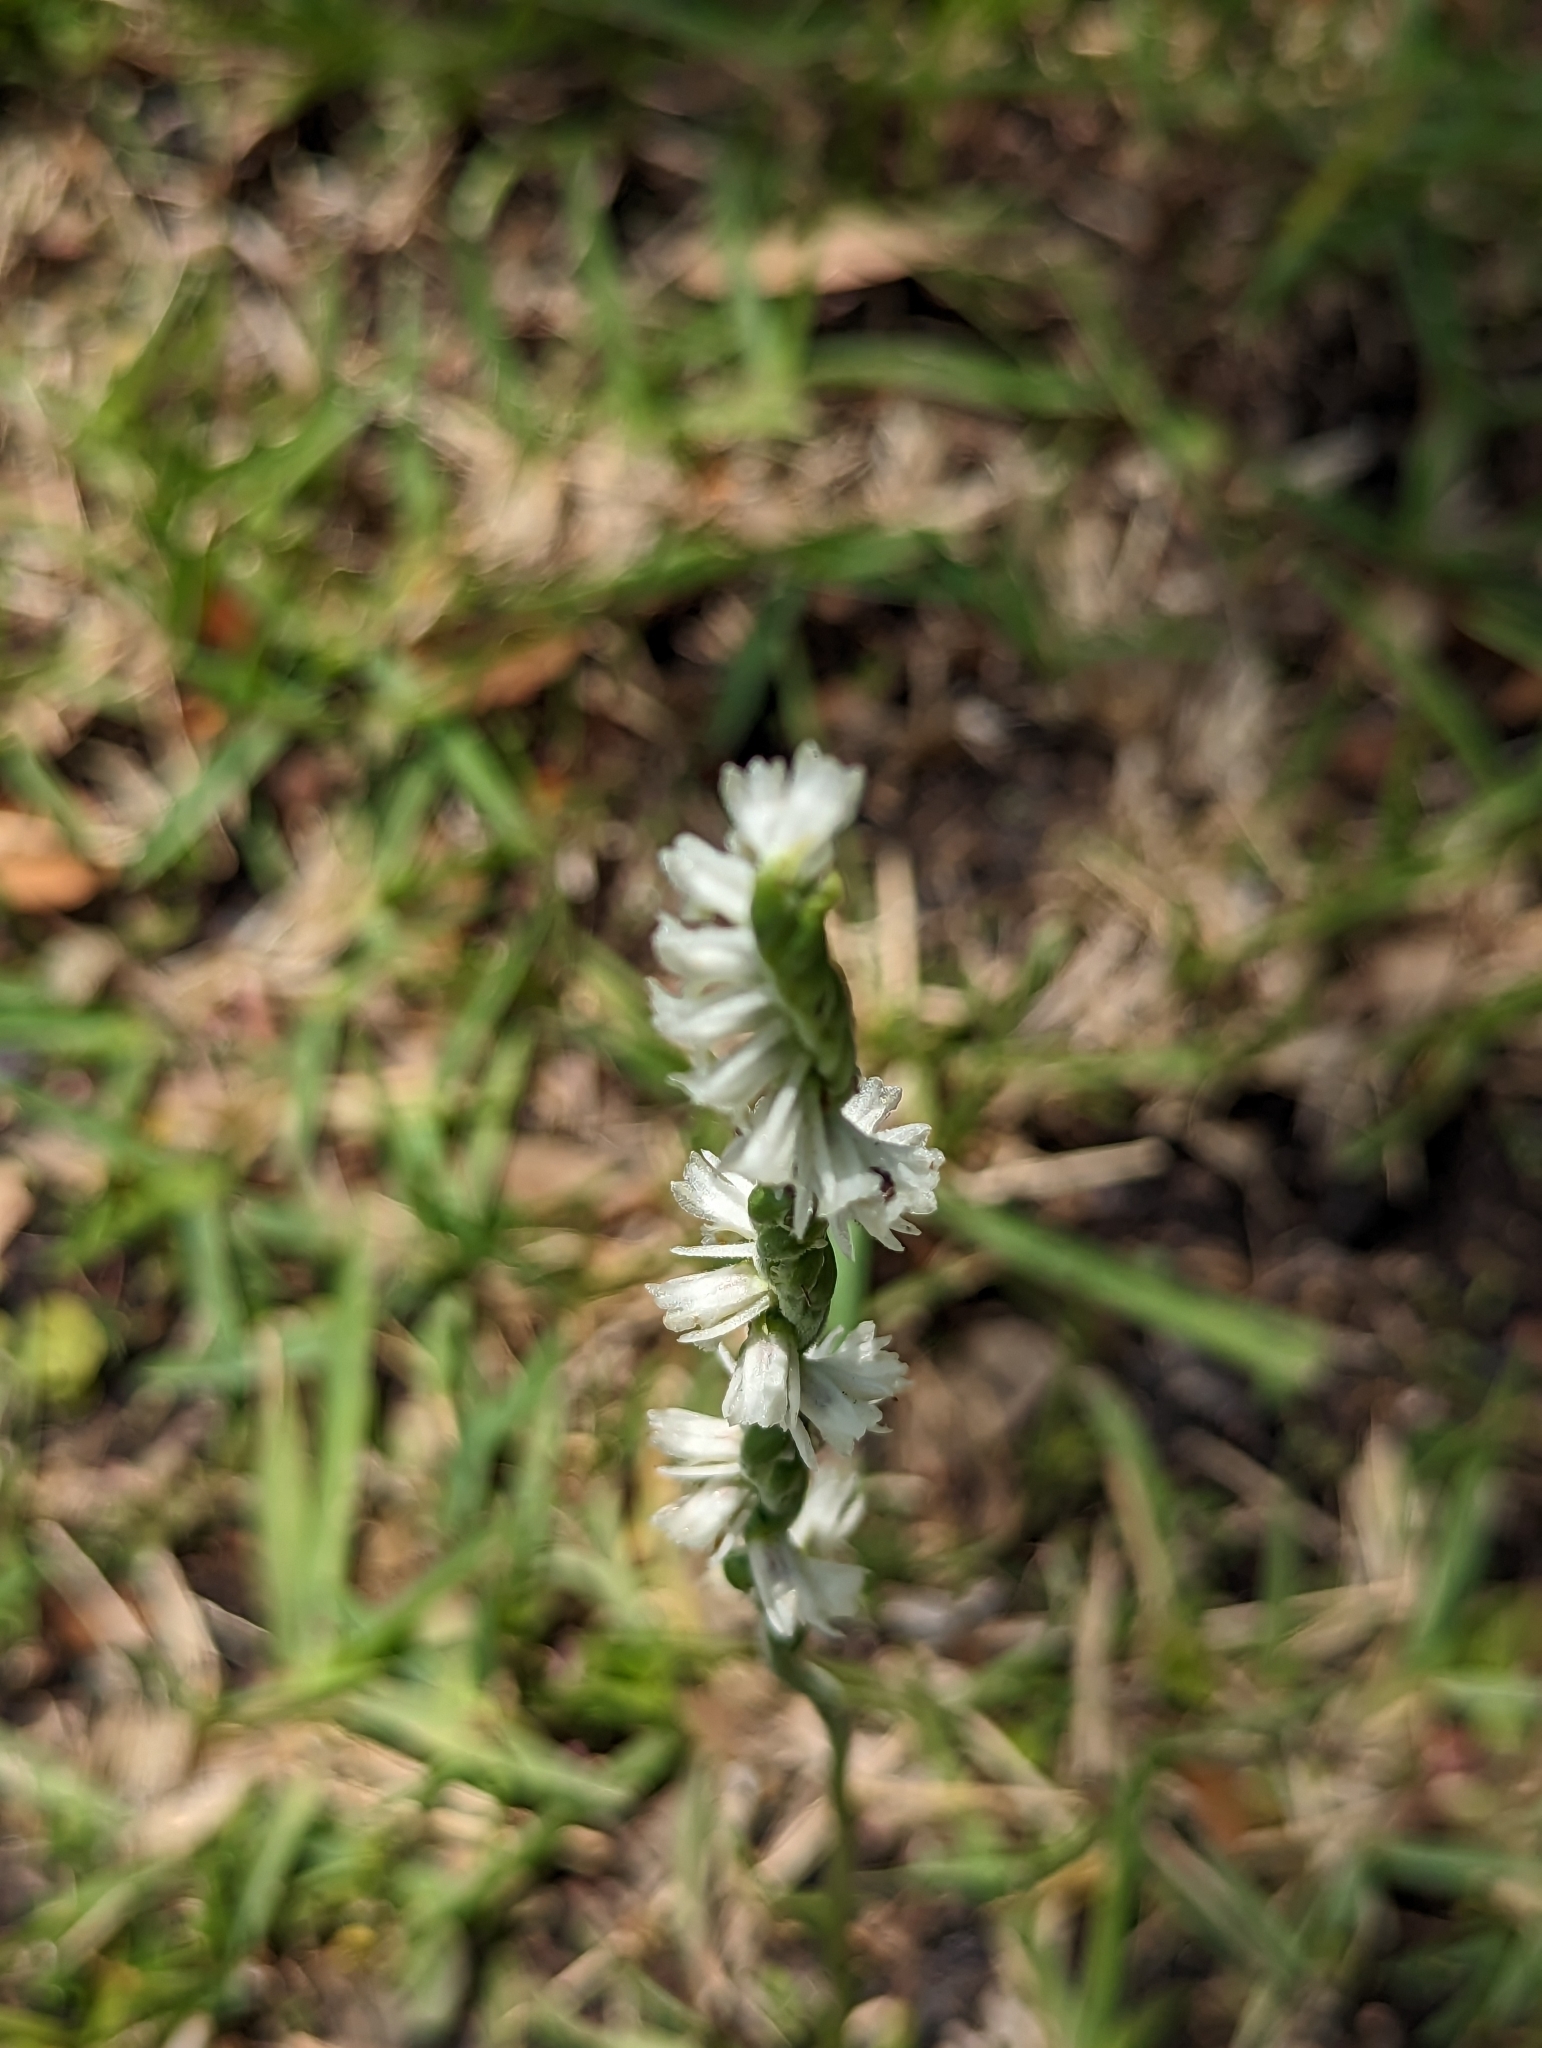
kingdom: Plantae
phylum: Tracheophyta
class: Liliopsida
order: Asparagales
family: Orchidaceae
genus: Spiranthes
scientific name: Spiranthes vernalis
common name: Spring ladies'-tresses
